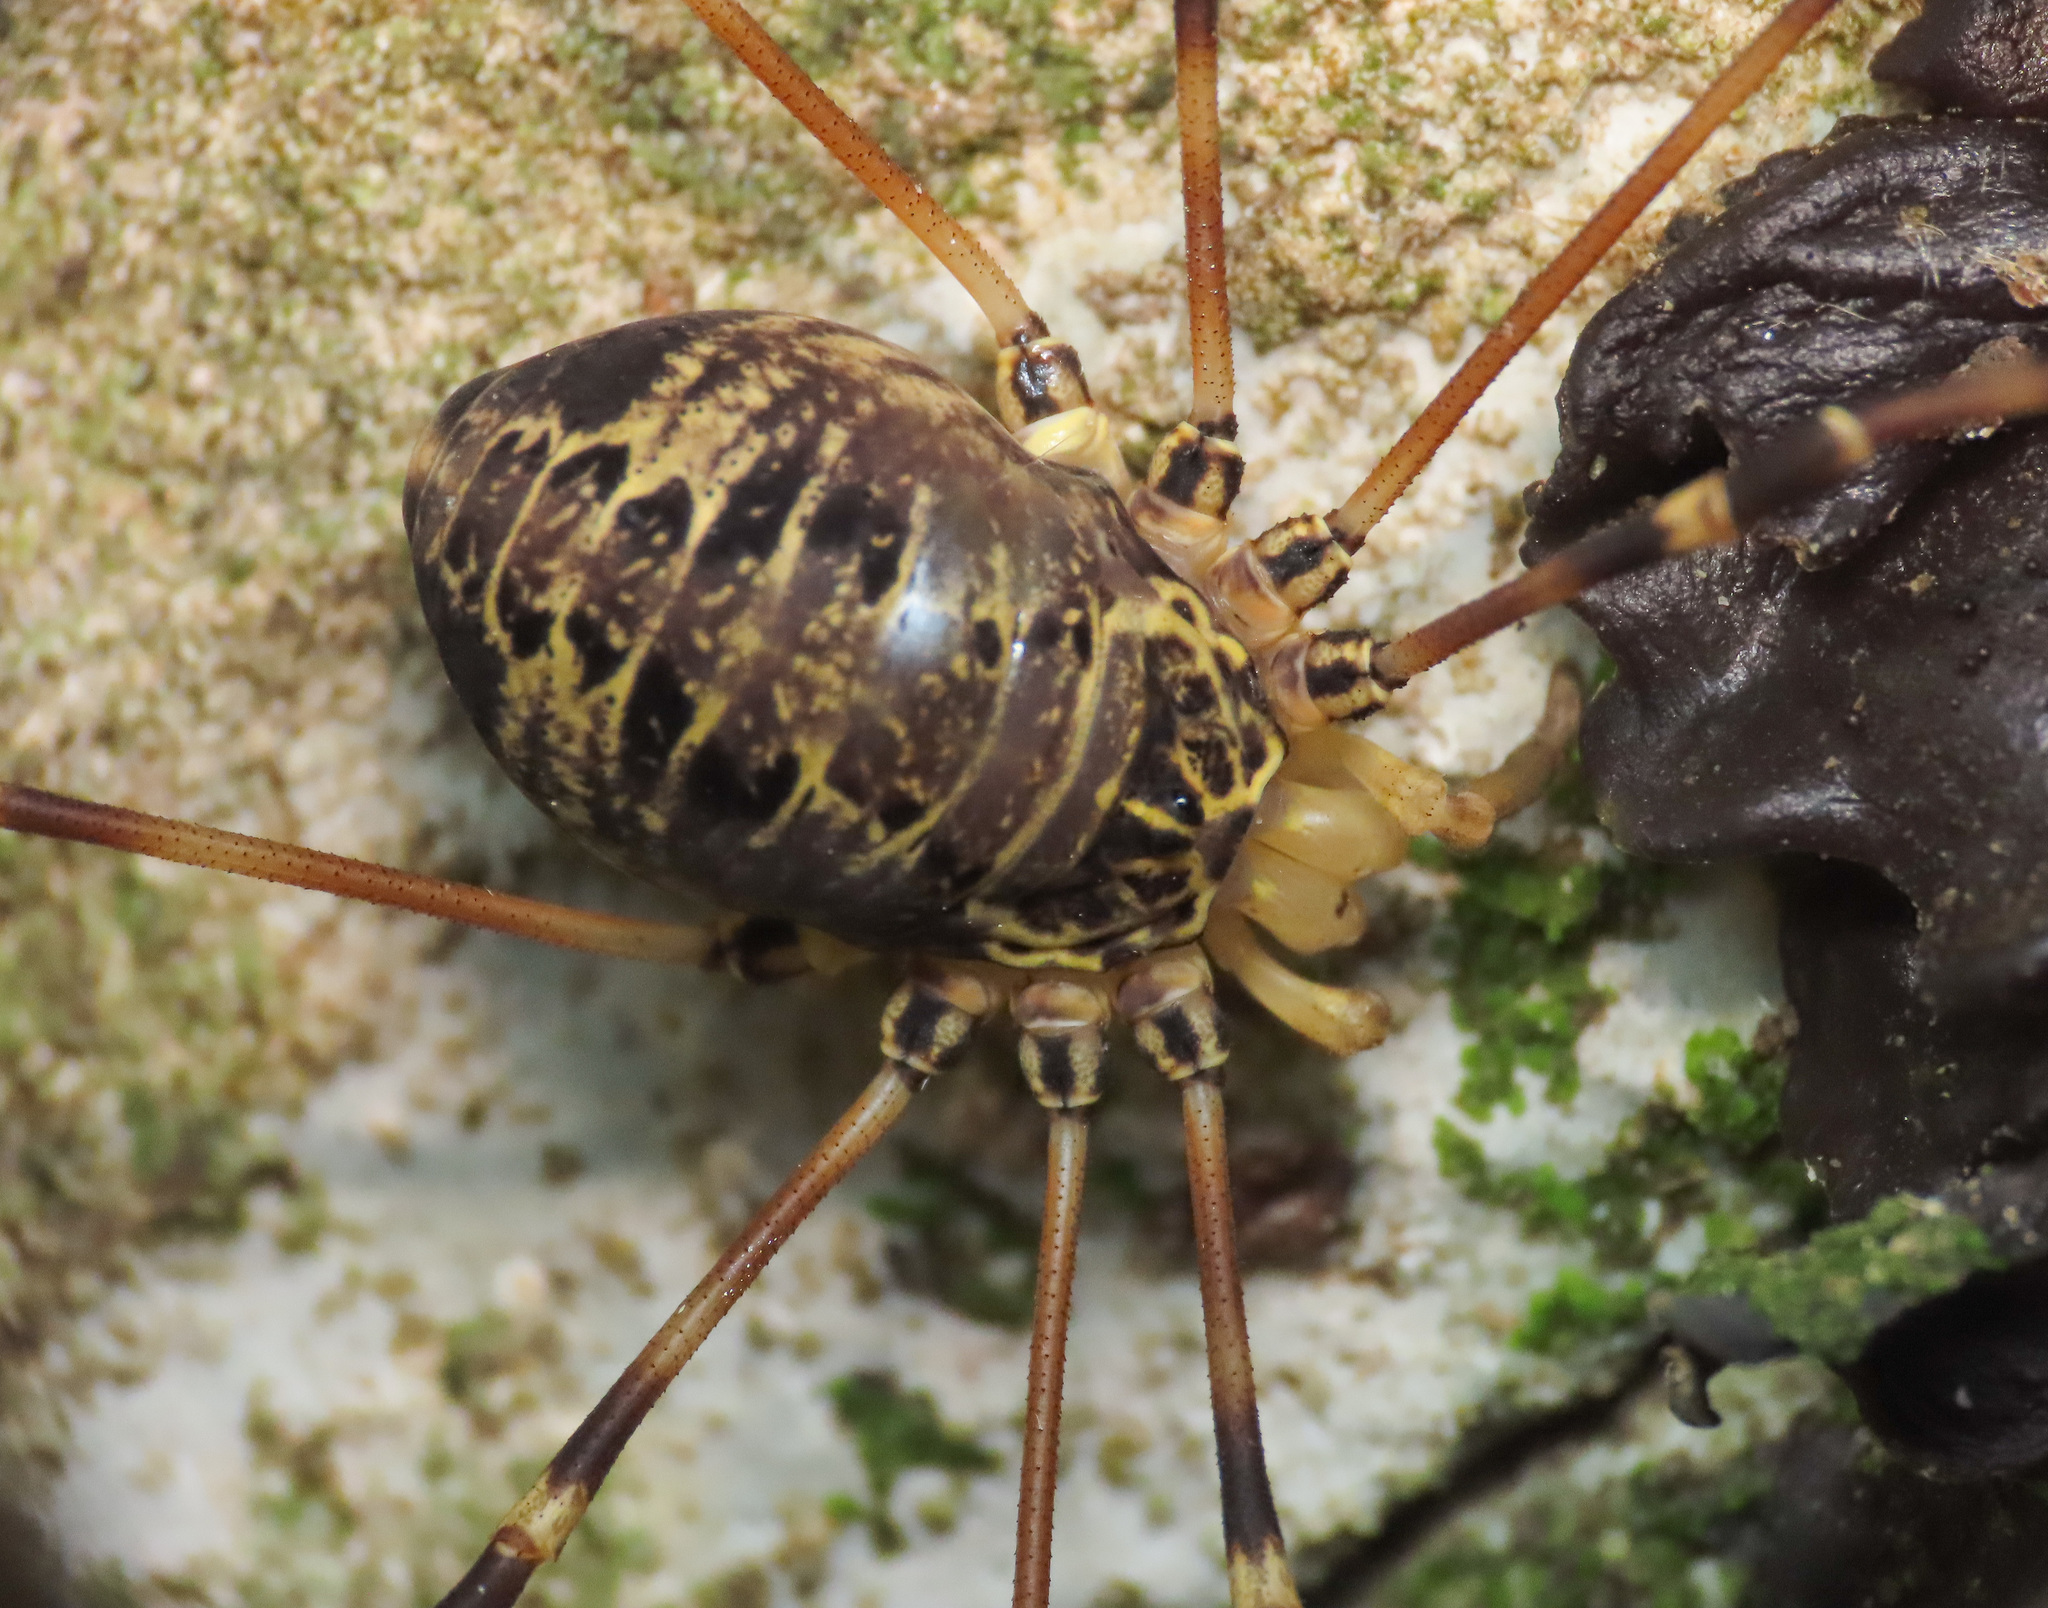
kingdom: Animalia
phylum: Arthropoda
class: Arachnida
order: Opiliones
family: Sclerosomatidae
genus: Gyas
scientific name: Gyas titanus
